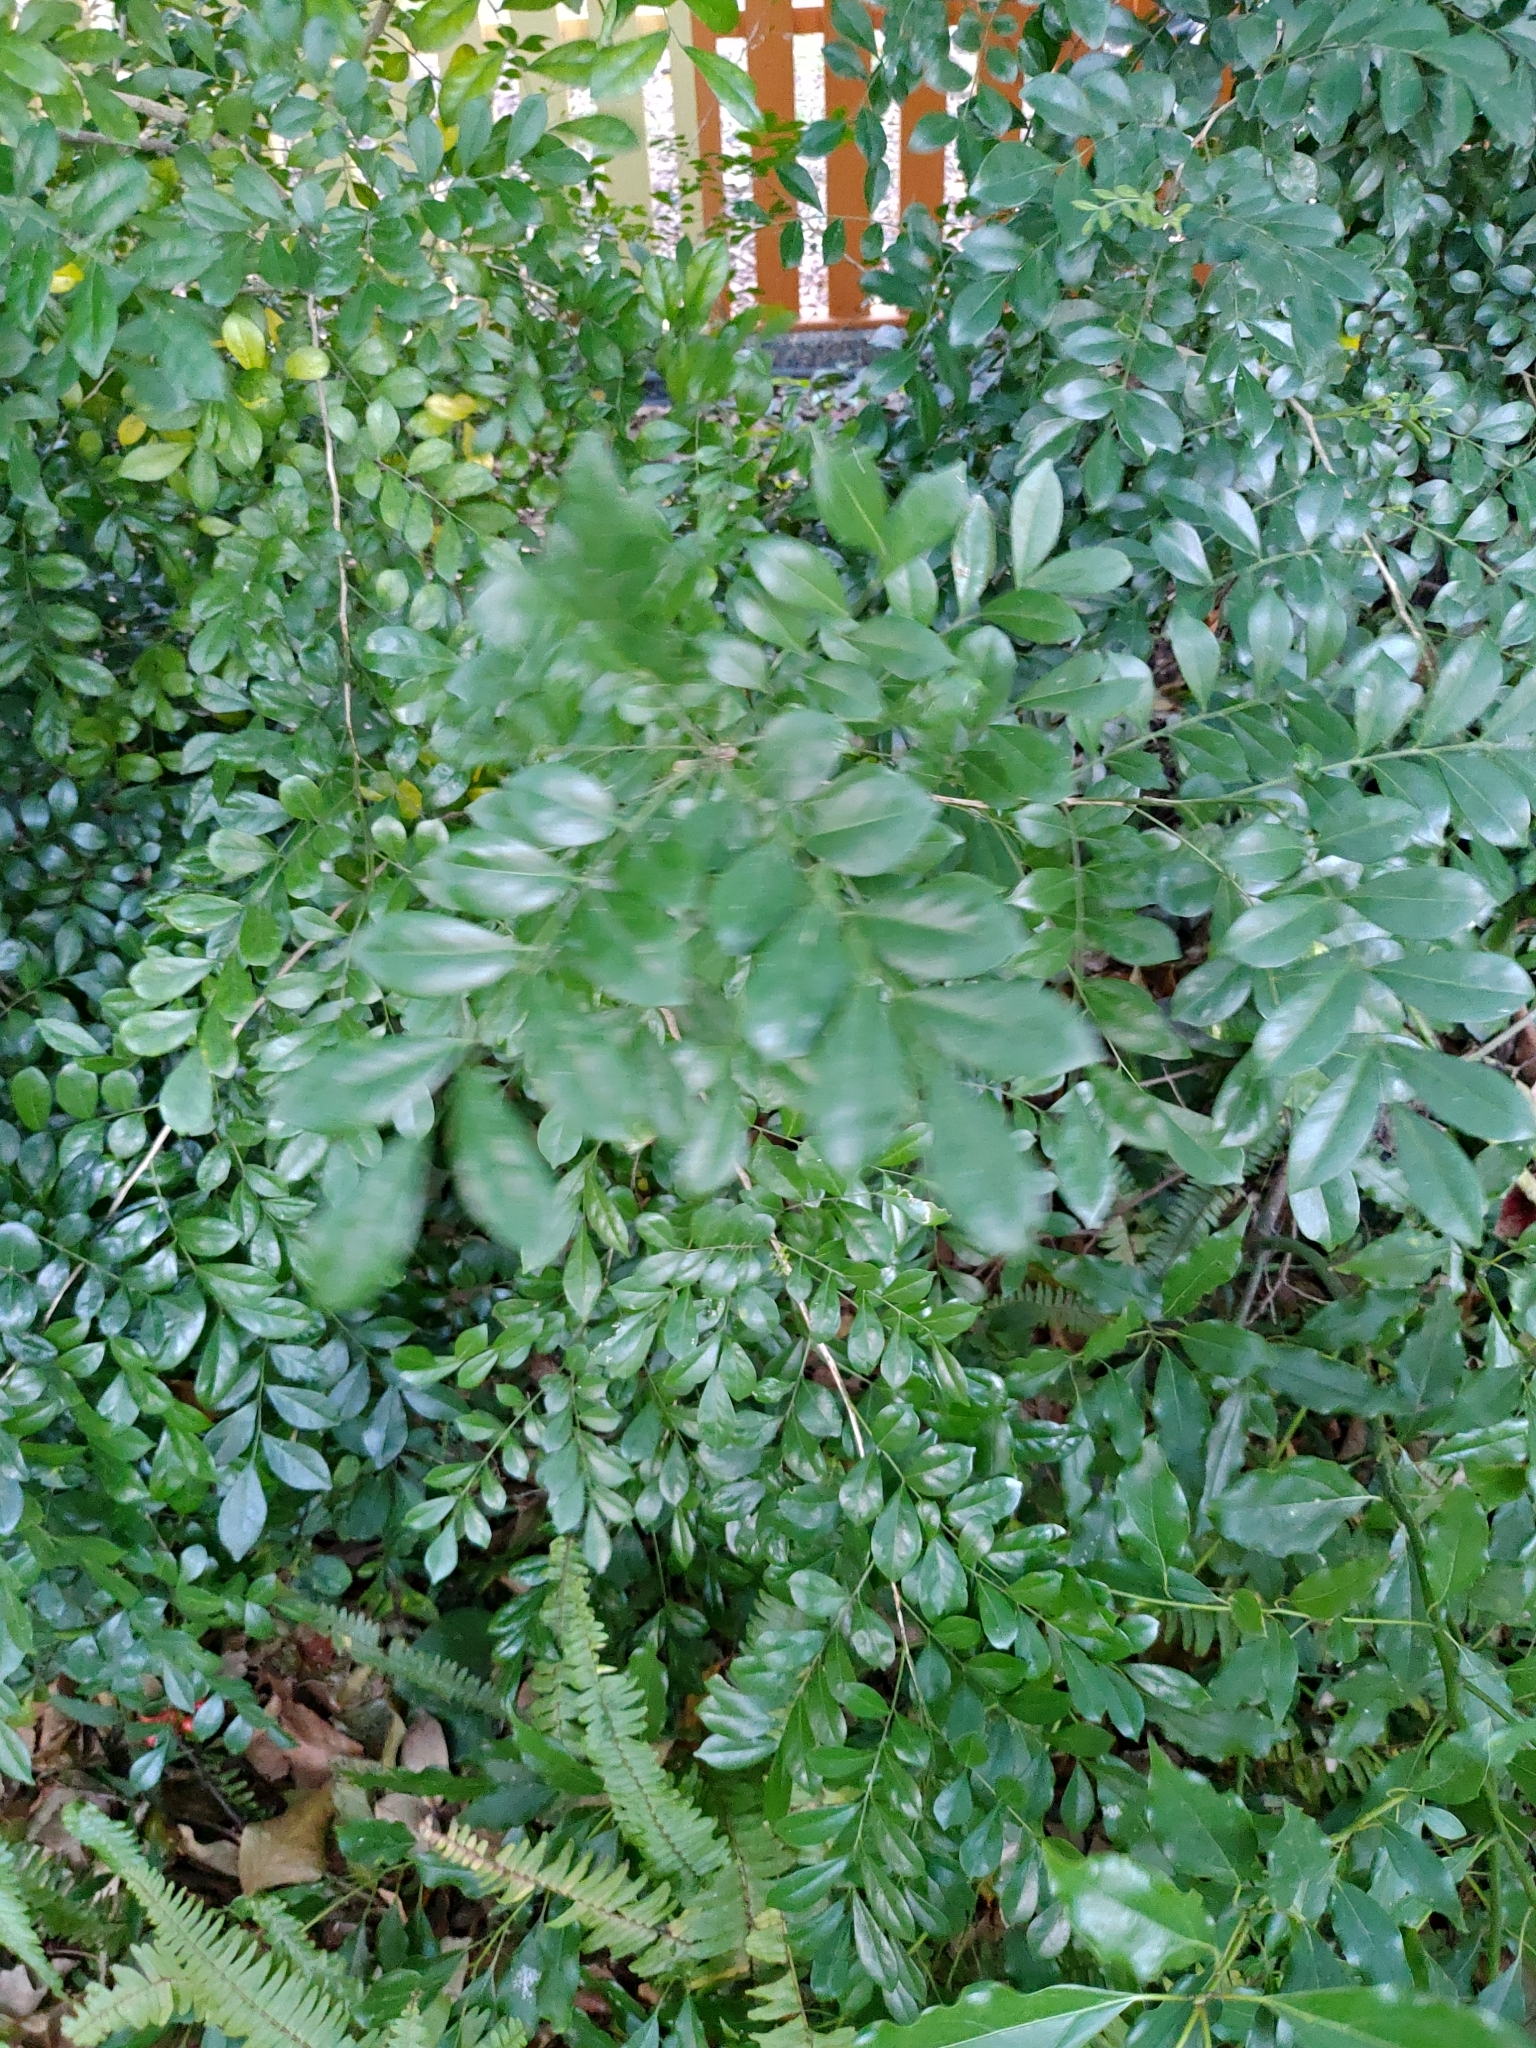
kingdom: Plantae
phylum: Tracheophyta
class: Magnoliopsida
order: Sapindales
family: Rutaceae
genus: Murraya
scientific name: Murraya paniculata
